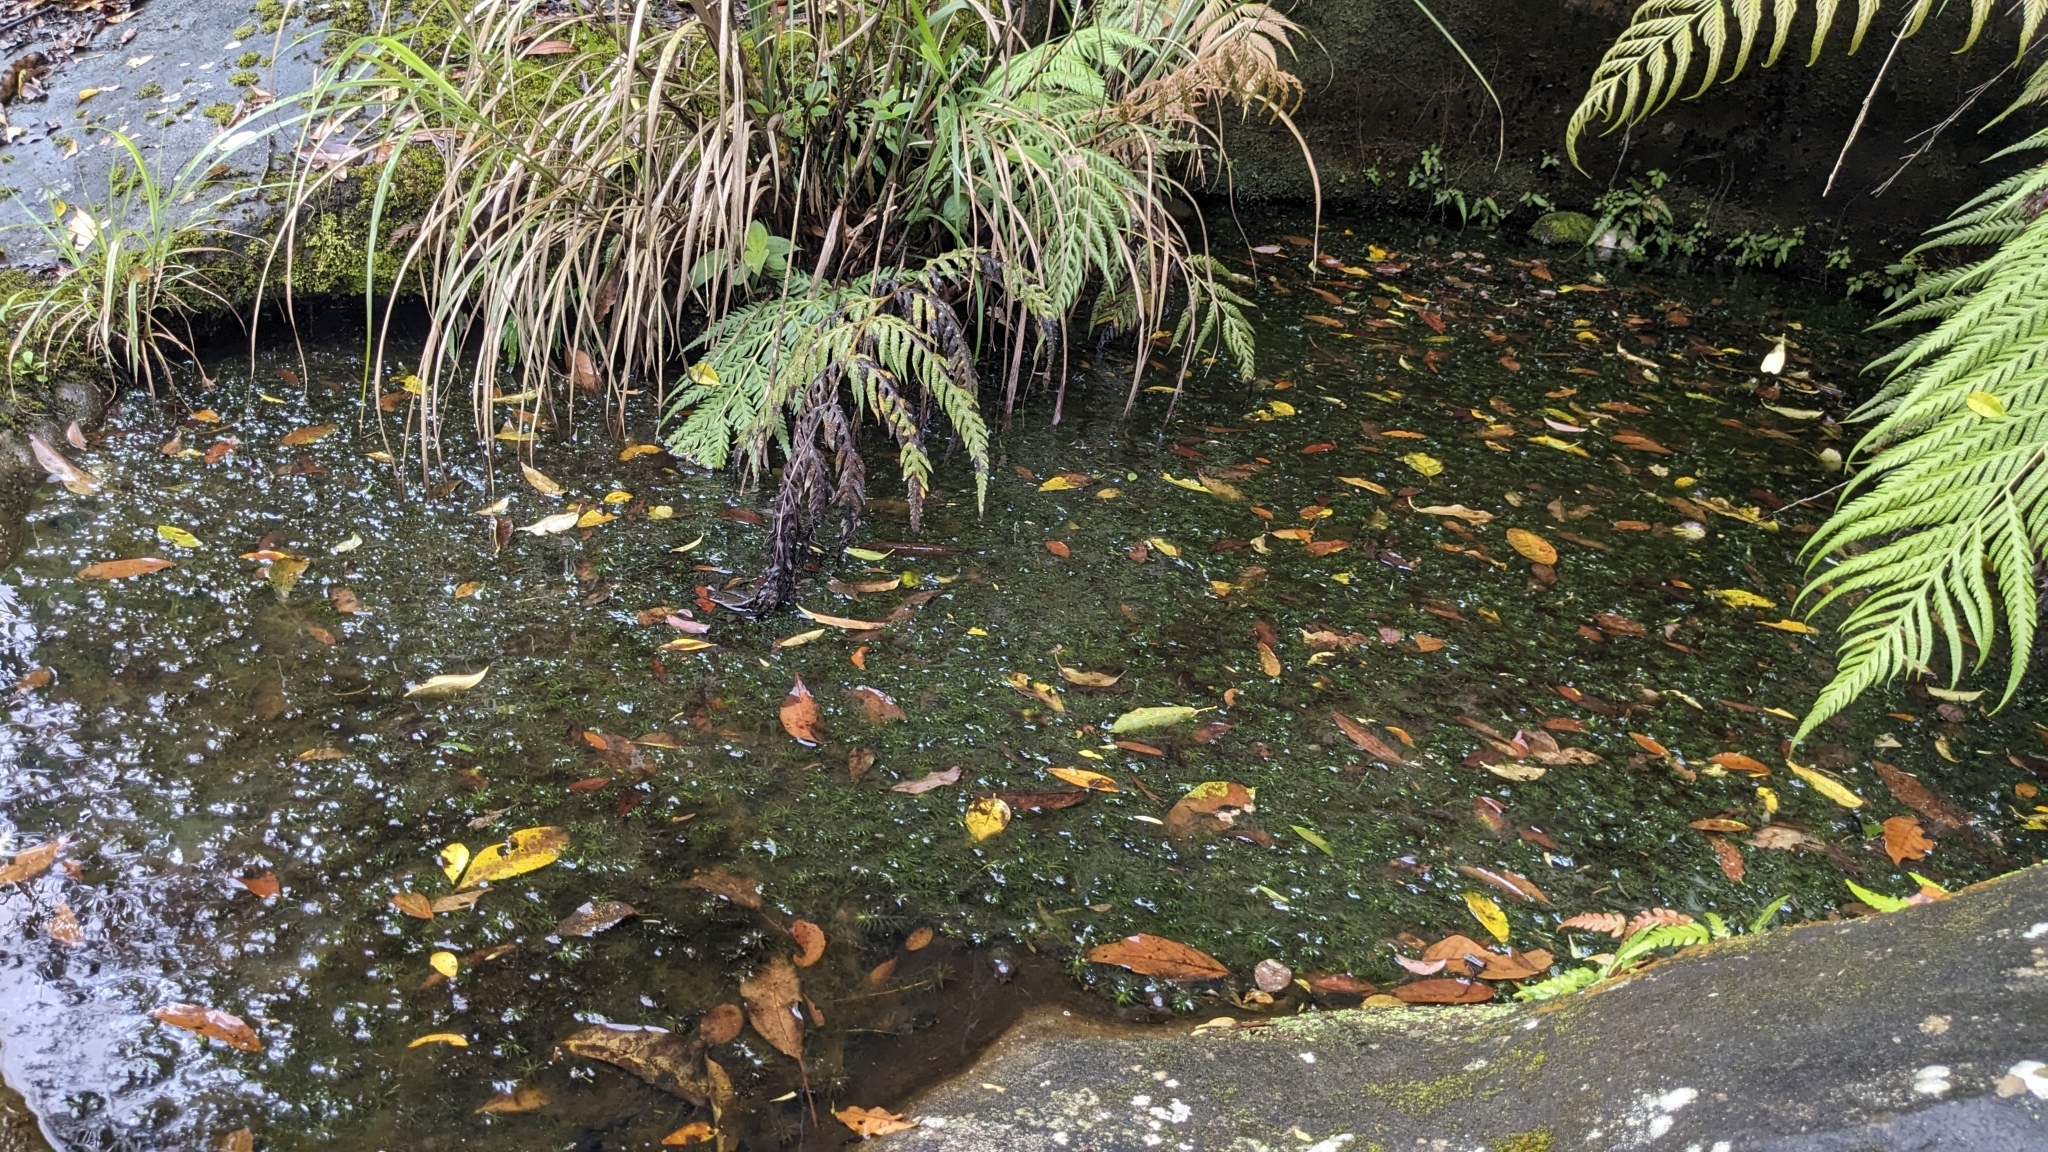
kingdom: Plantae
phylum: Tracheophyta
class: Liliopsida
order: Alismatales
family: Hydrocharitaceae
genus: Hydrilla
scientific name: Hydrilla verticillata
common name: Florida-elodea
